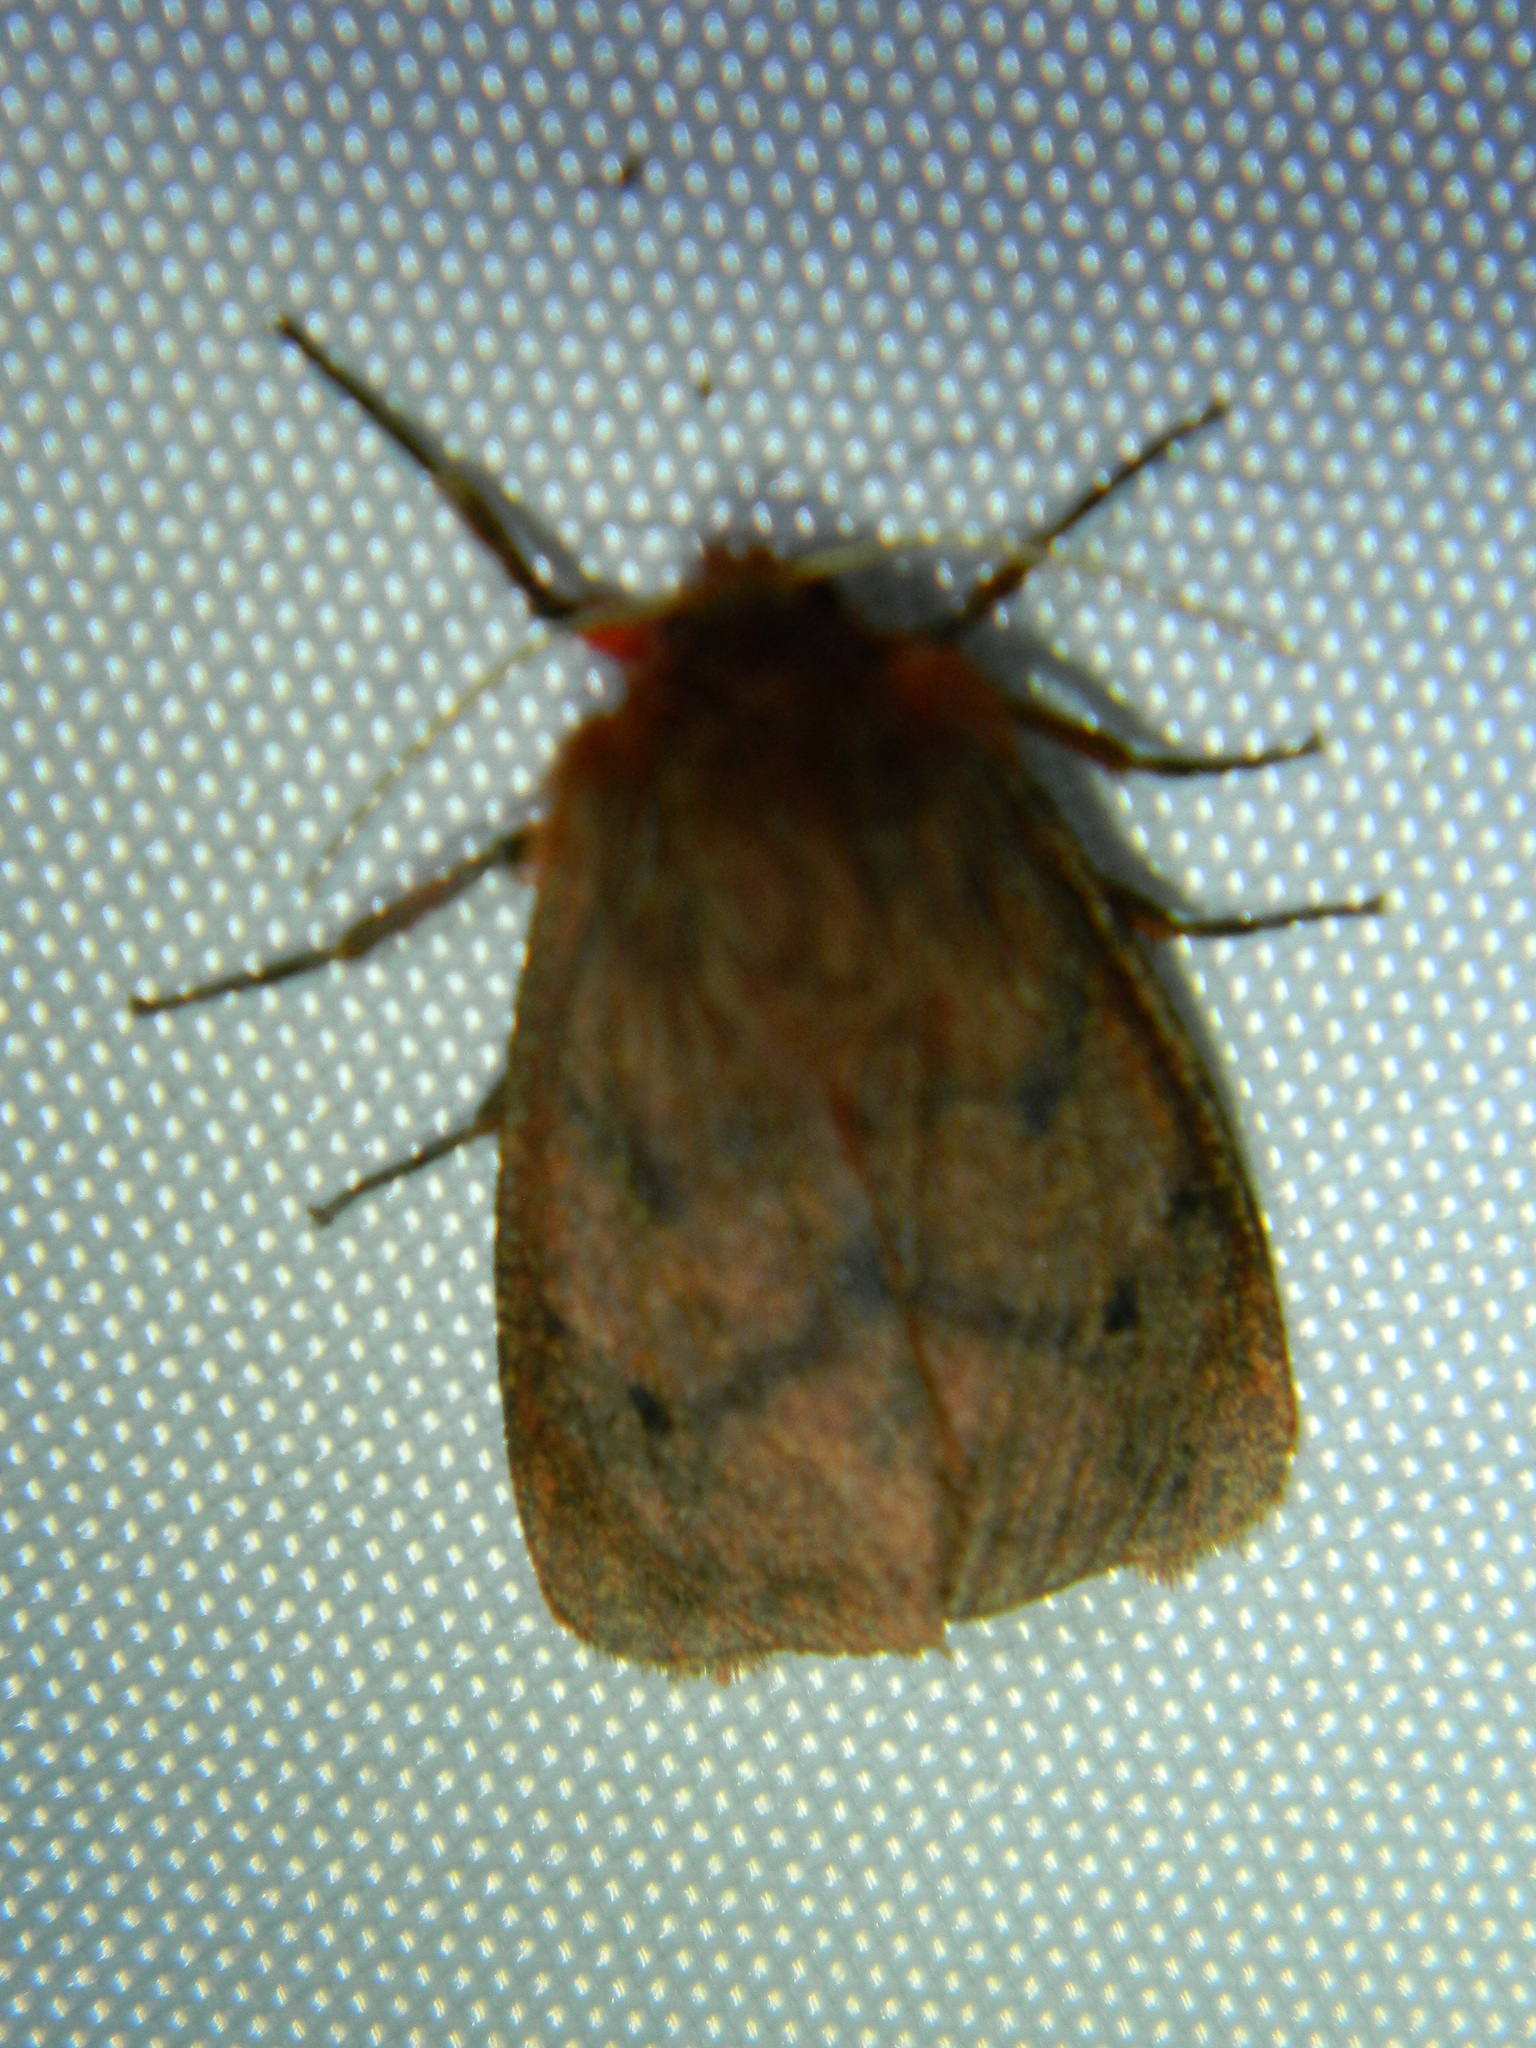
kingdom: Animalia
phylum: Arthropoda
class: Insecta
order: Lepidoptera
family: Erebidae
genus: Phragmatobia
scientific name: Phragmatobia assimilans
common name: Large ruby tiger moth
